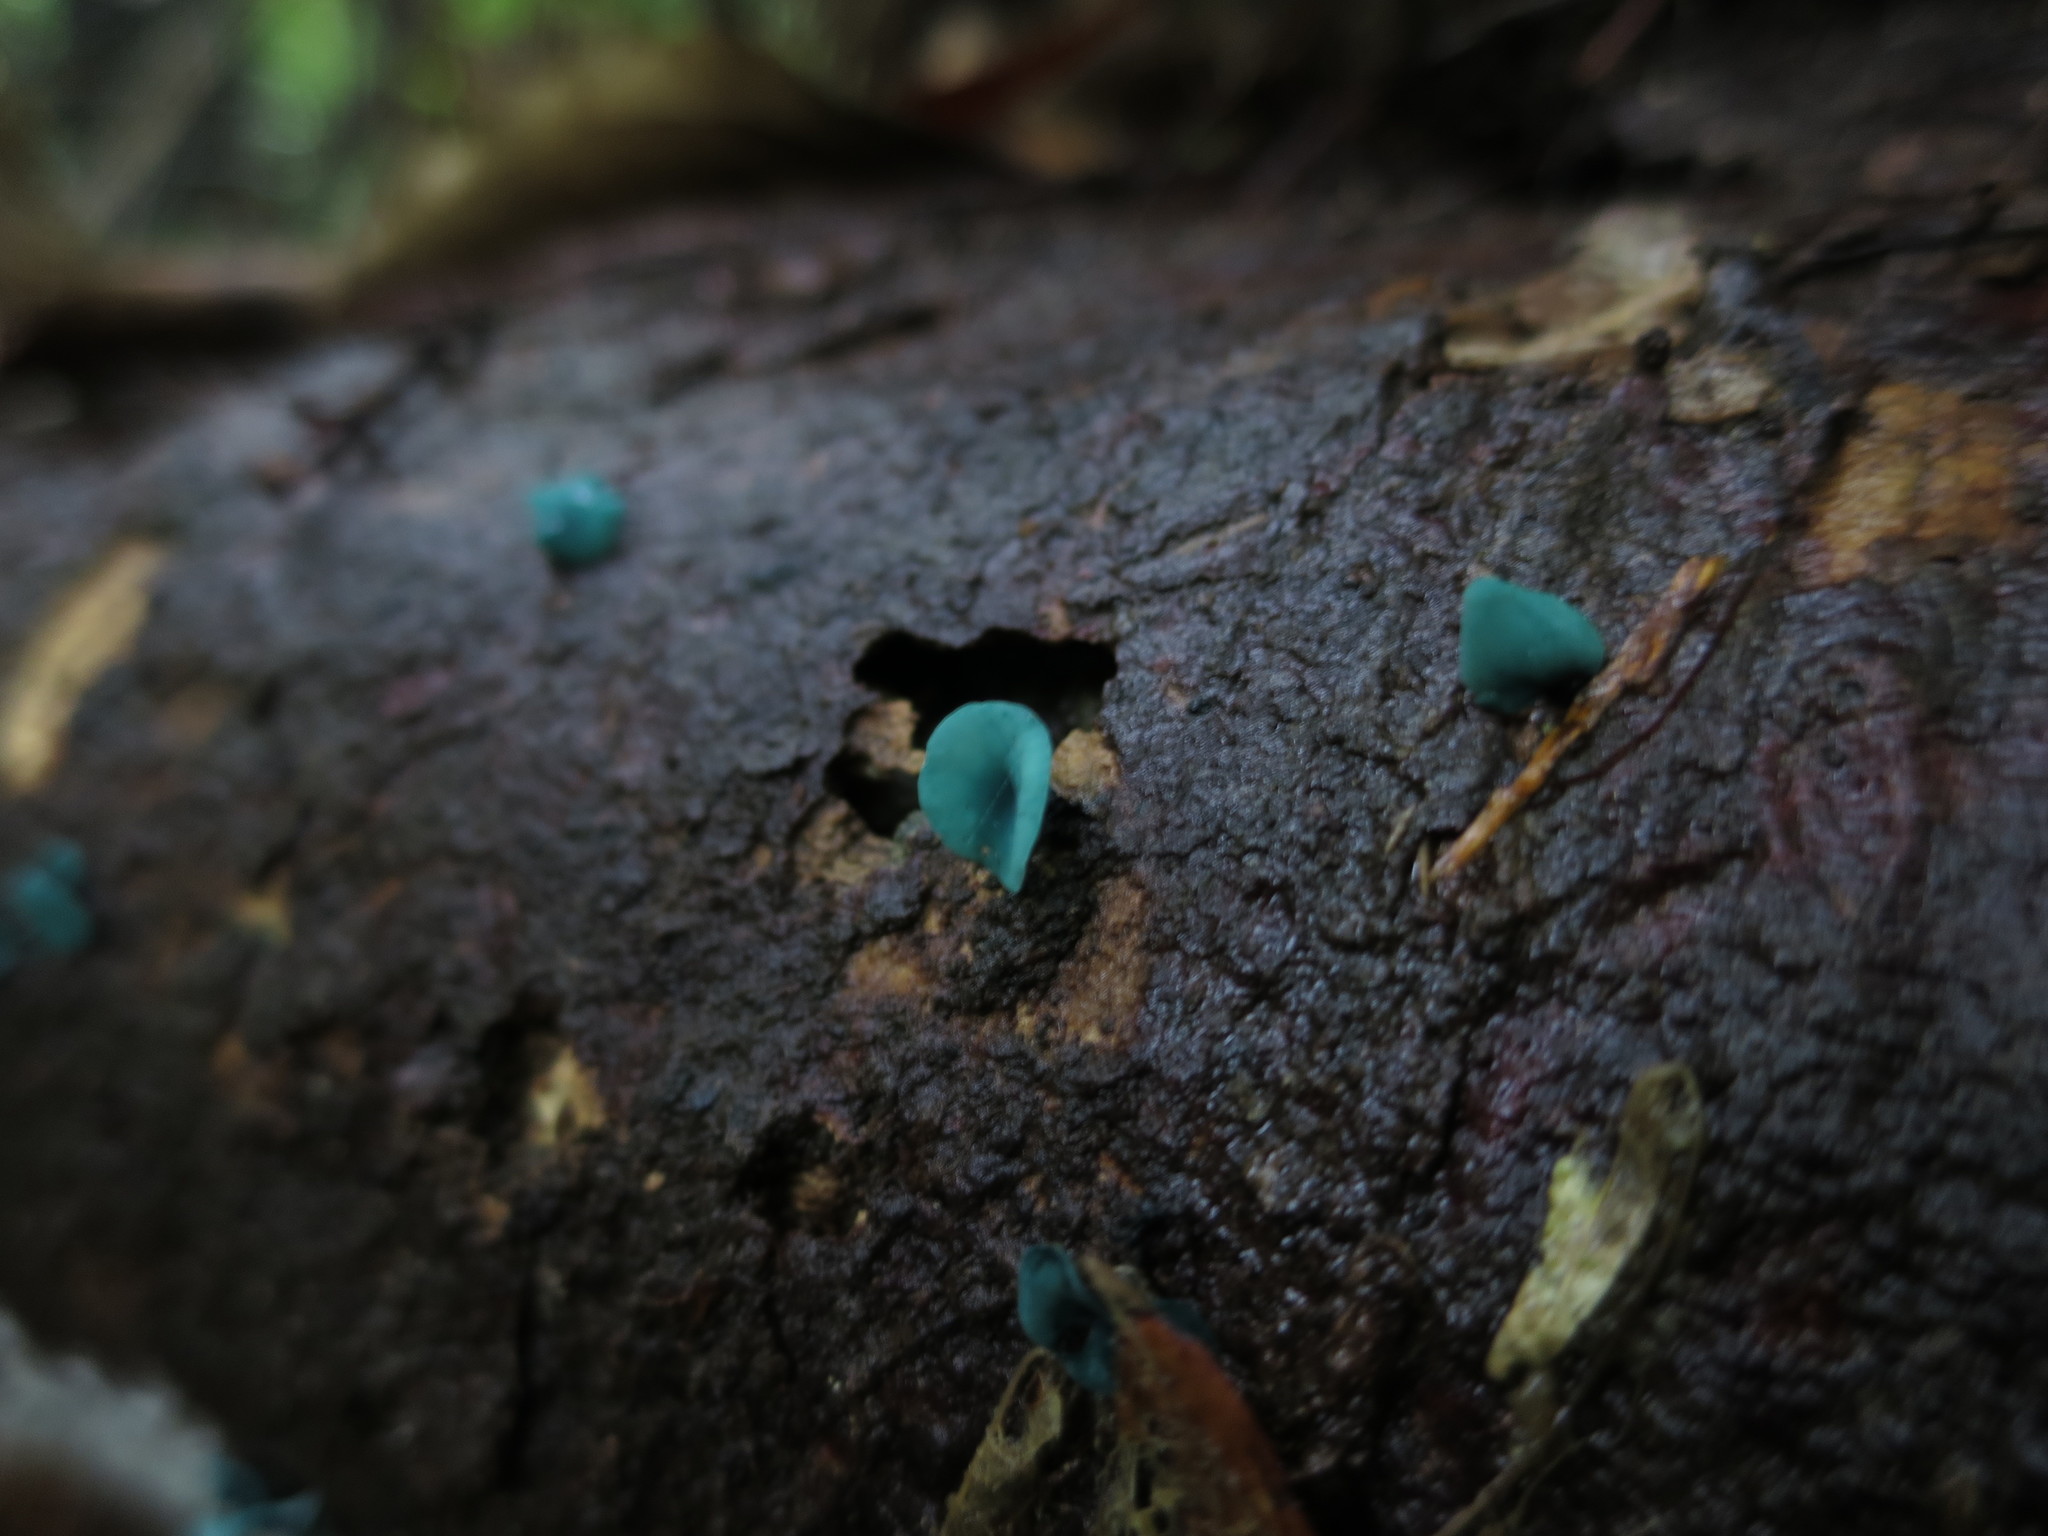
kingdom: Fungi
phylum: Ascomycota
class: Leotiomycetes
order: Helotiales
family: Chlorociboriaceae
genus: Chlorociboria
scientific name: Chlorociboria
